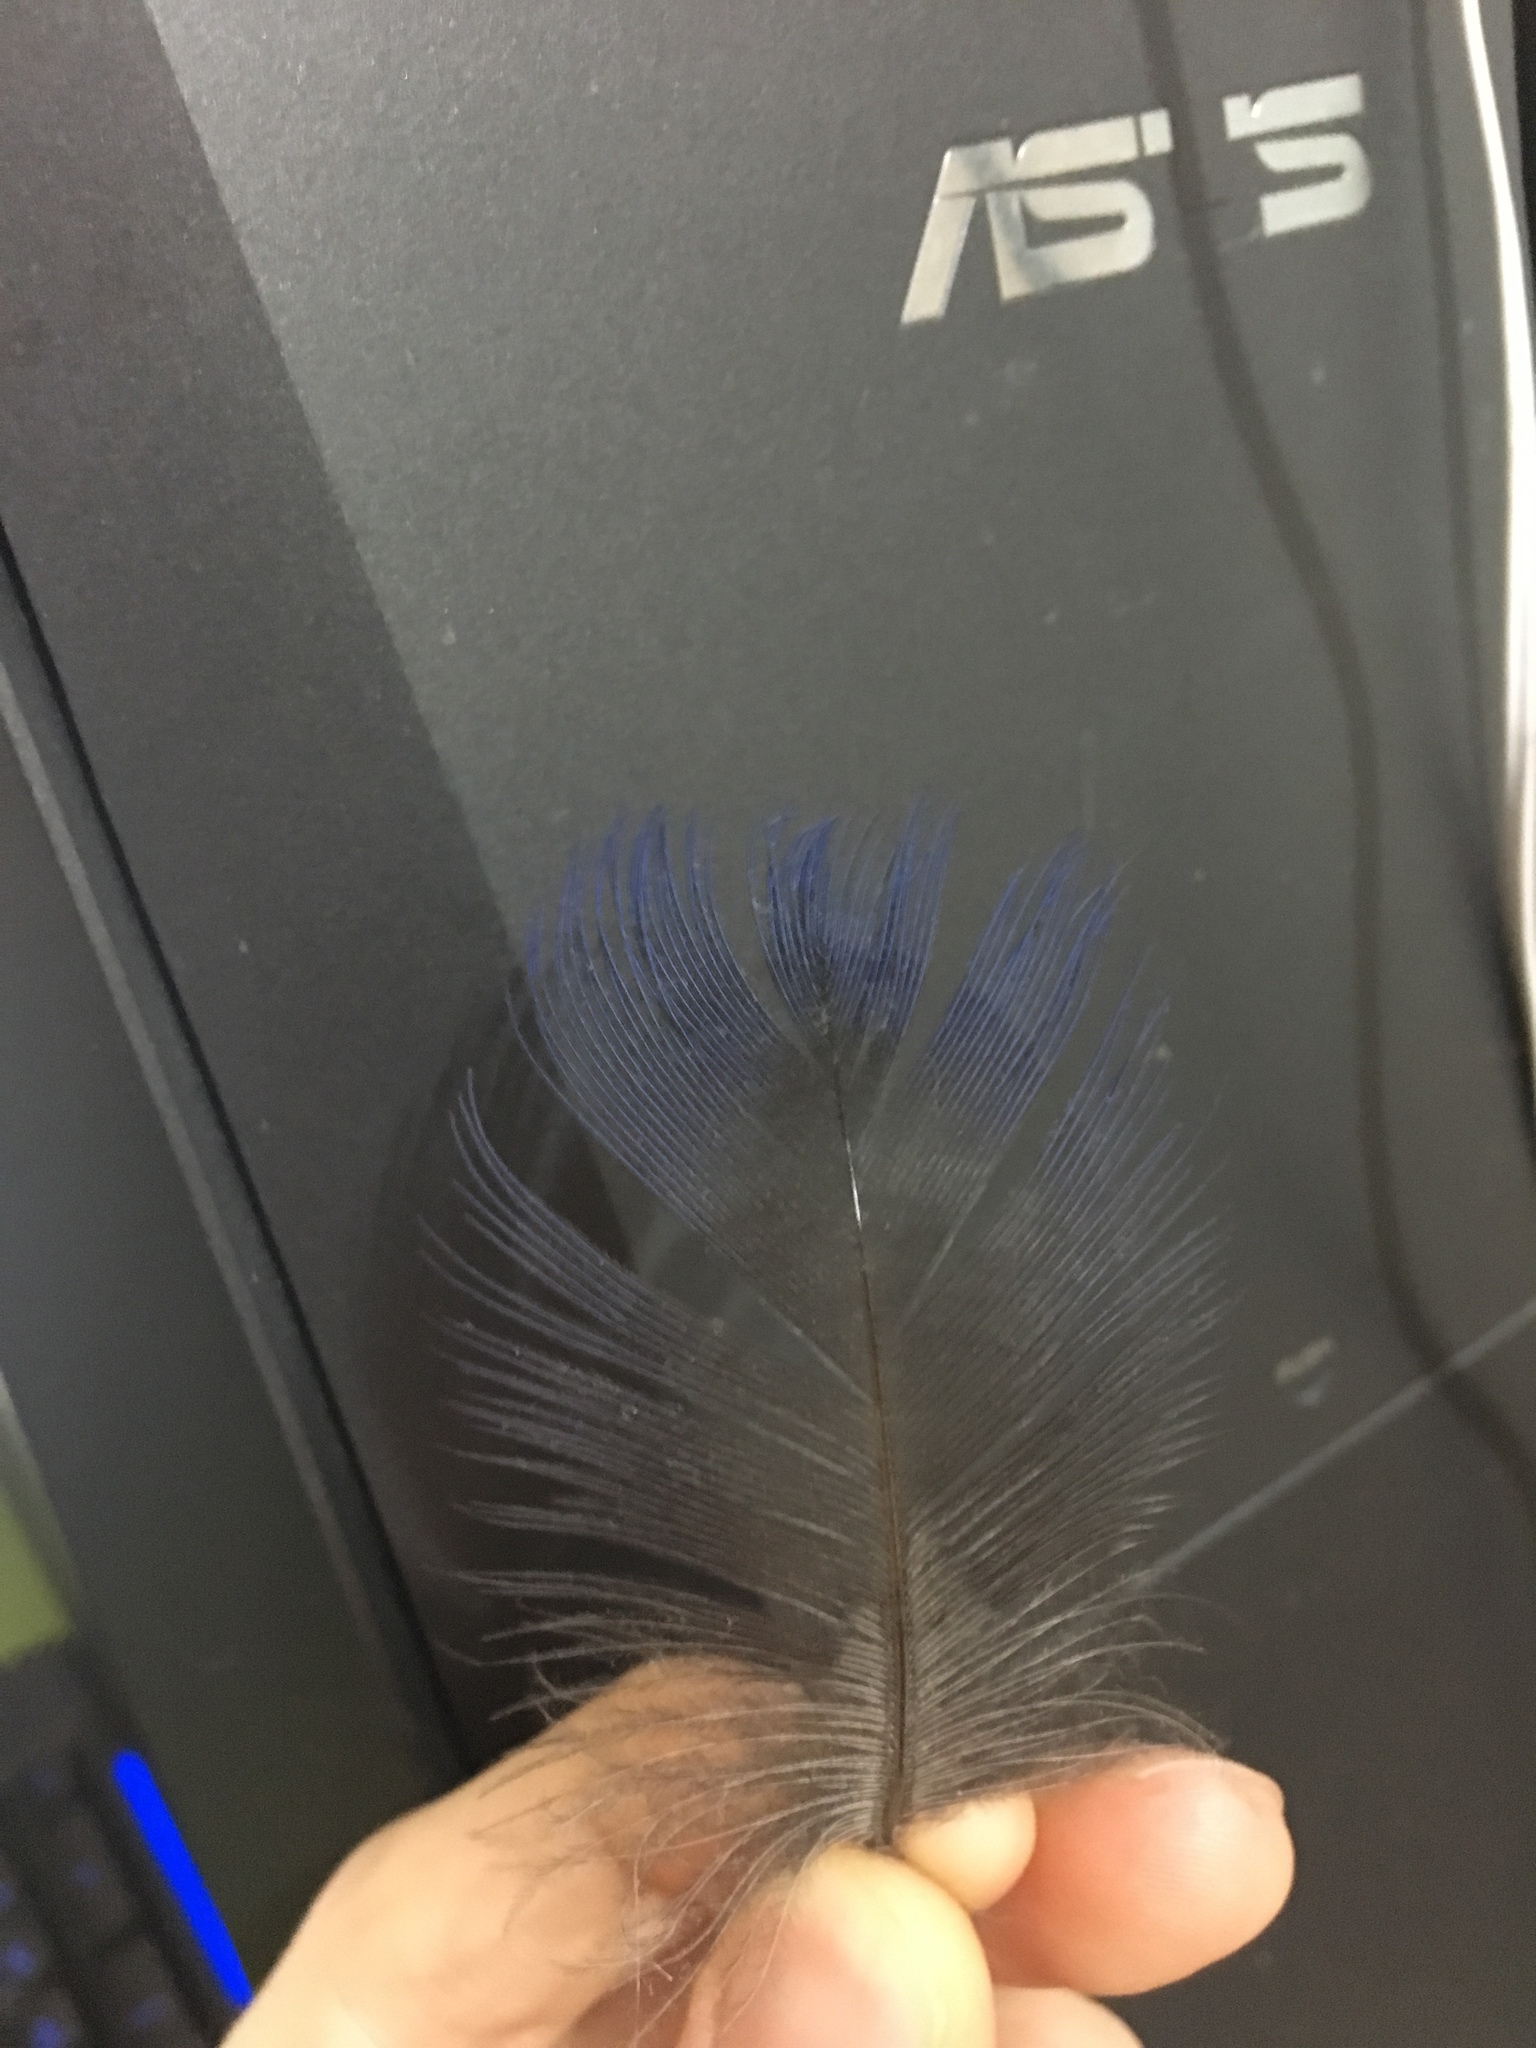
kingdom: Animalia
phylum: Chordata
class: Aves
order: Gruiformes
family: Rallidae
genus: Porphyrio
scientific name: Porphyrio melanotus
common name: Australasian swamphen
